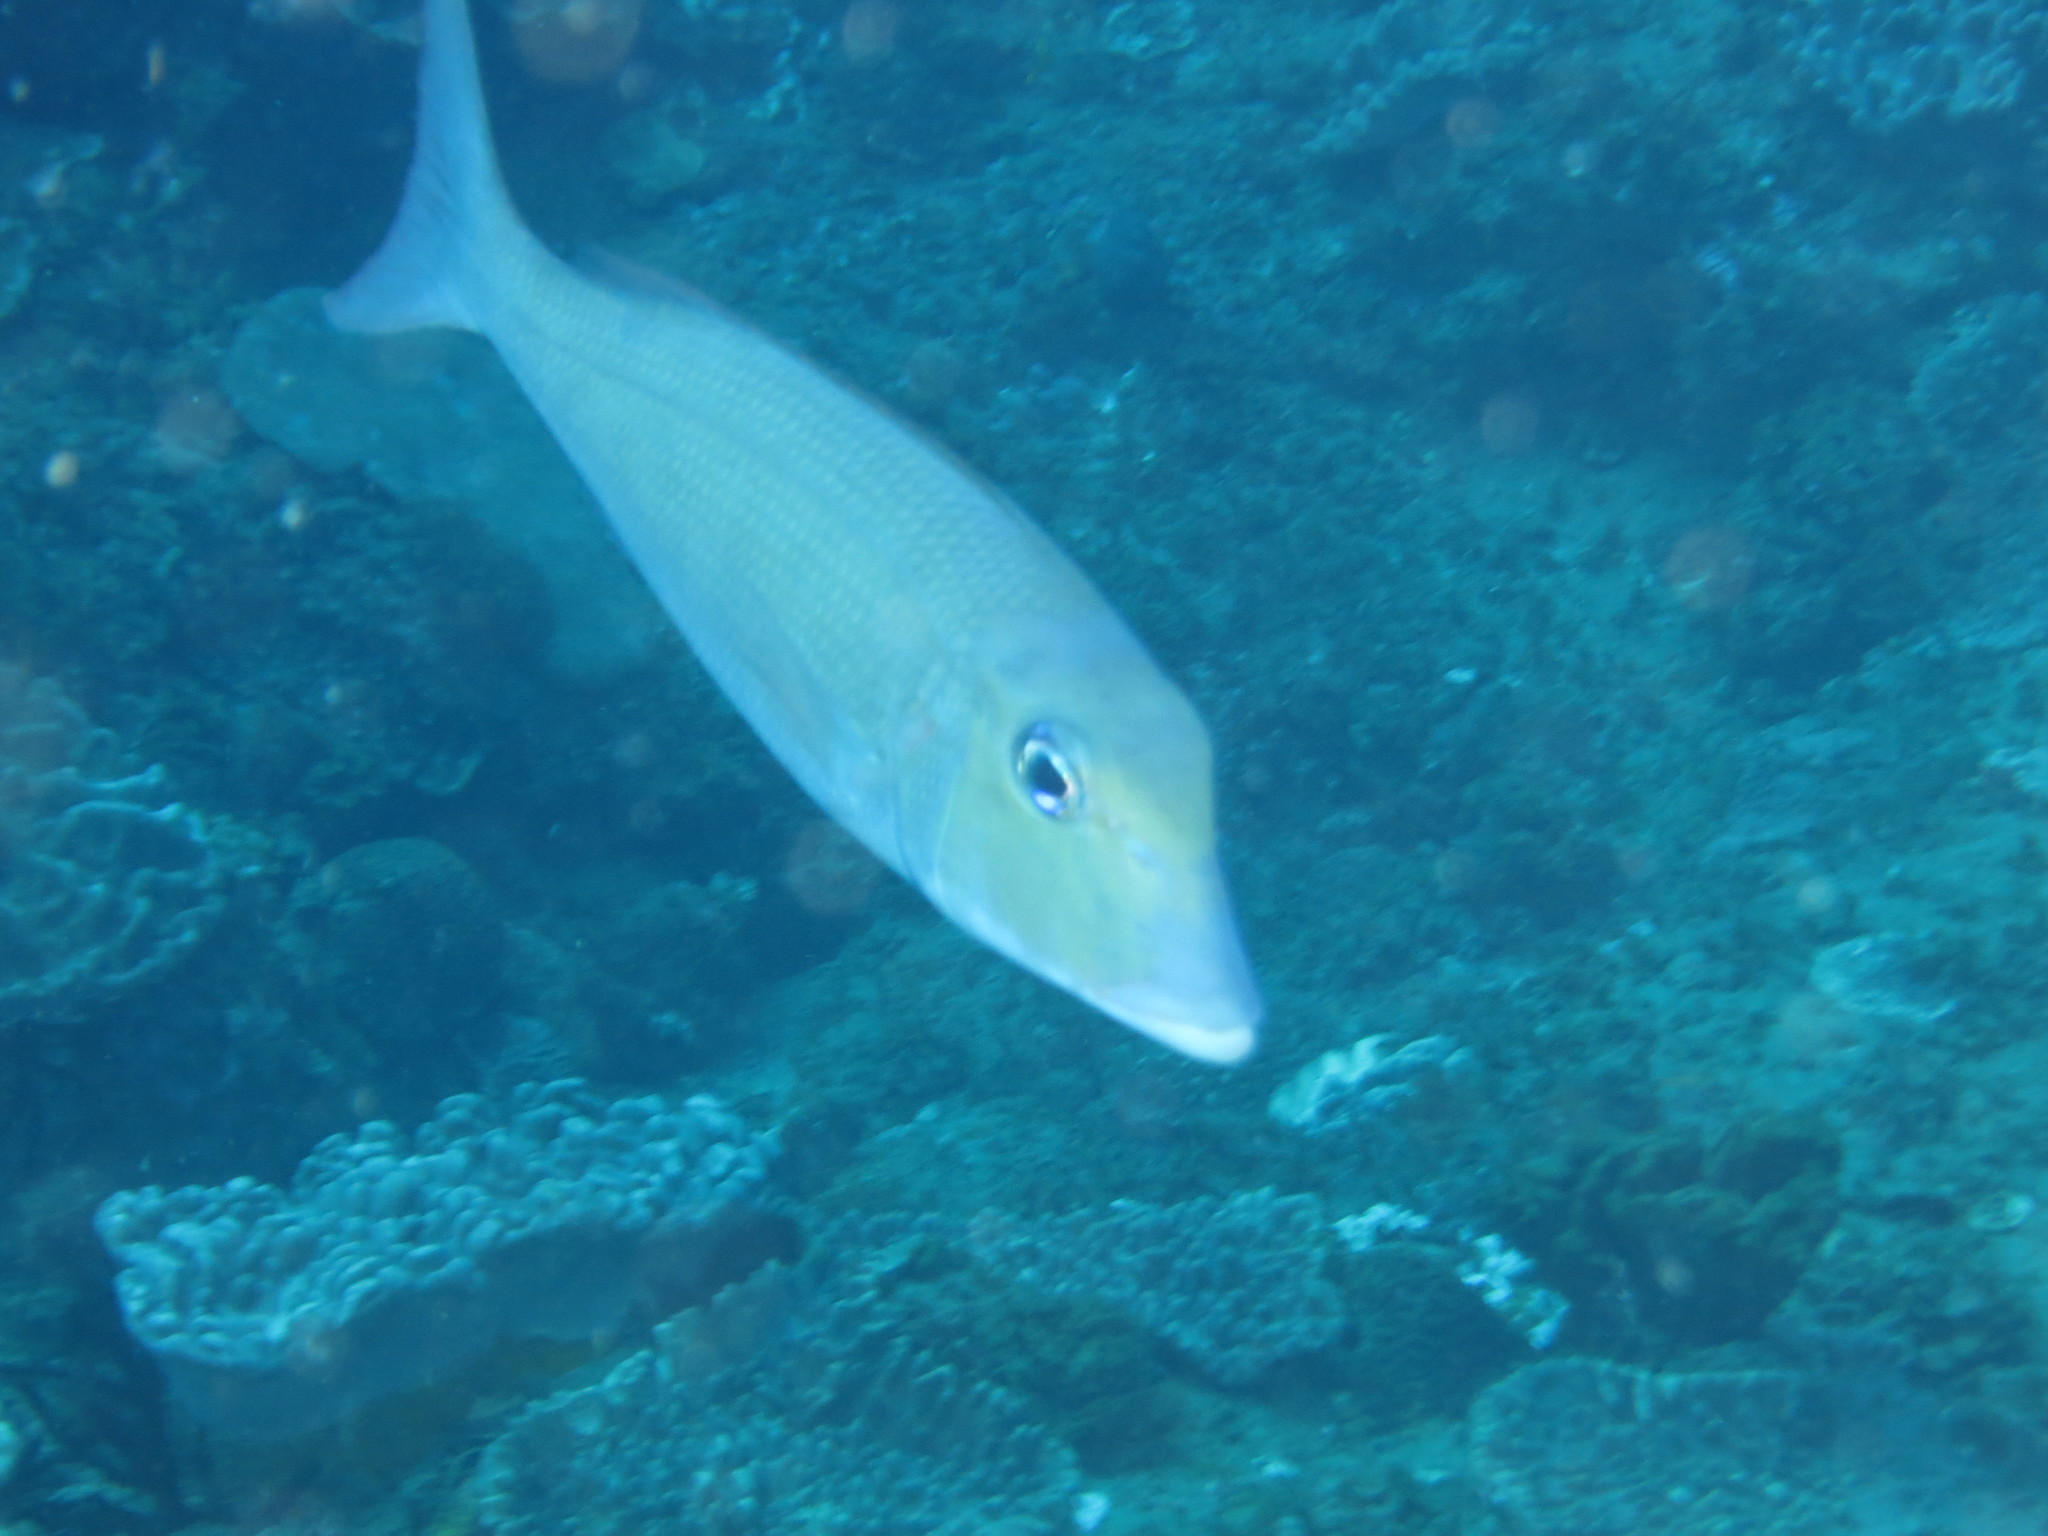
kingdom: Animalia
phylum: Chordata
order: Perciformes
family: Lethrinidae
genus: Lethrinus
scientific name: Lethrinus rubrioperculatus
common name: Spotcheek emperor
